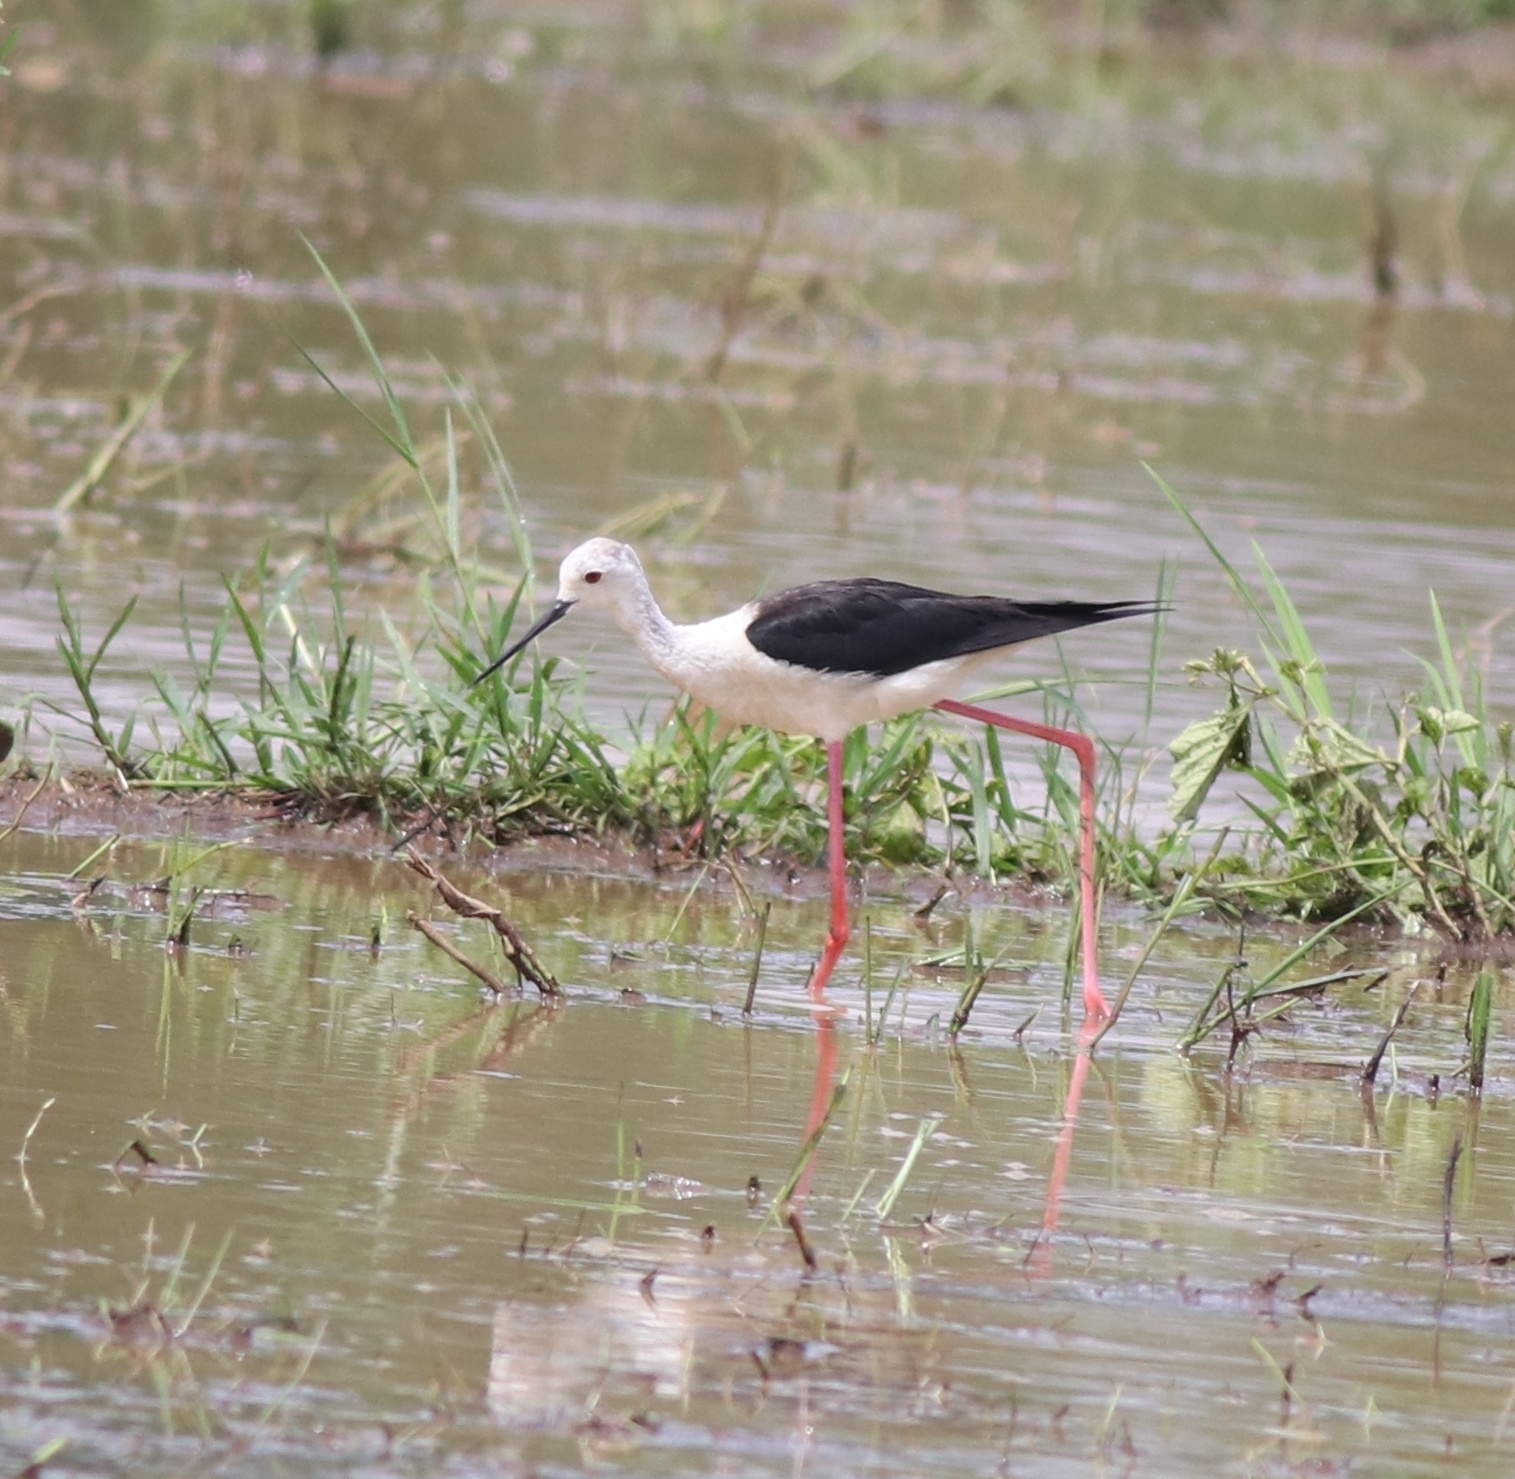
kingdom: Animalia
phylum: Chordata
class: Aves
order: Charadriiformes
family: Recurvirostridae
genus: Himantopus
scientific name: Himantopus himantopus
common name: Black-winged stilt
